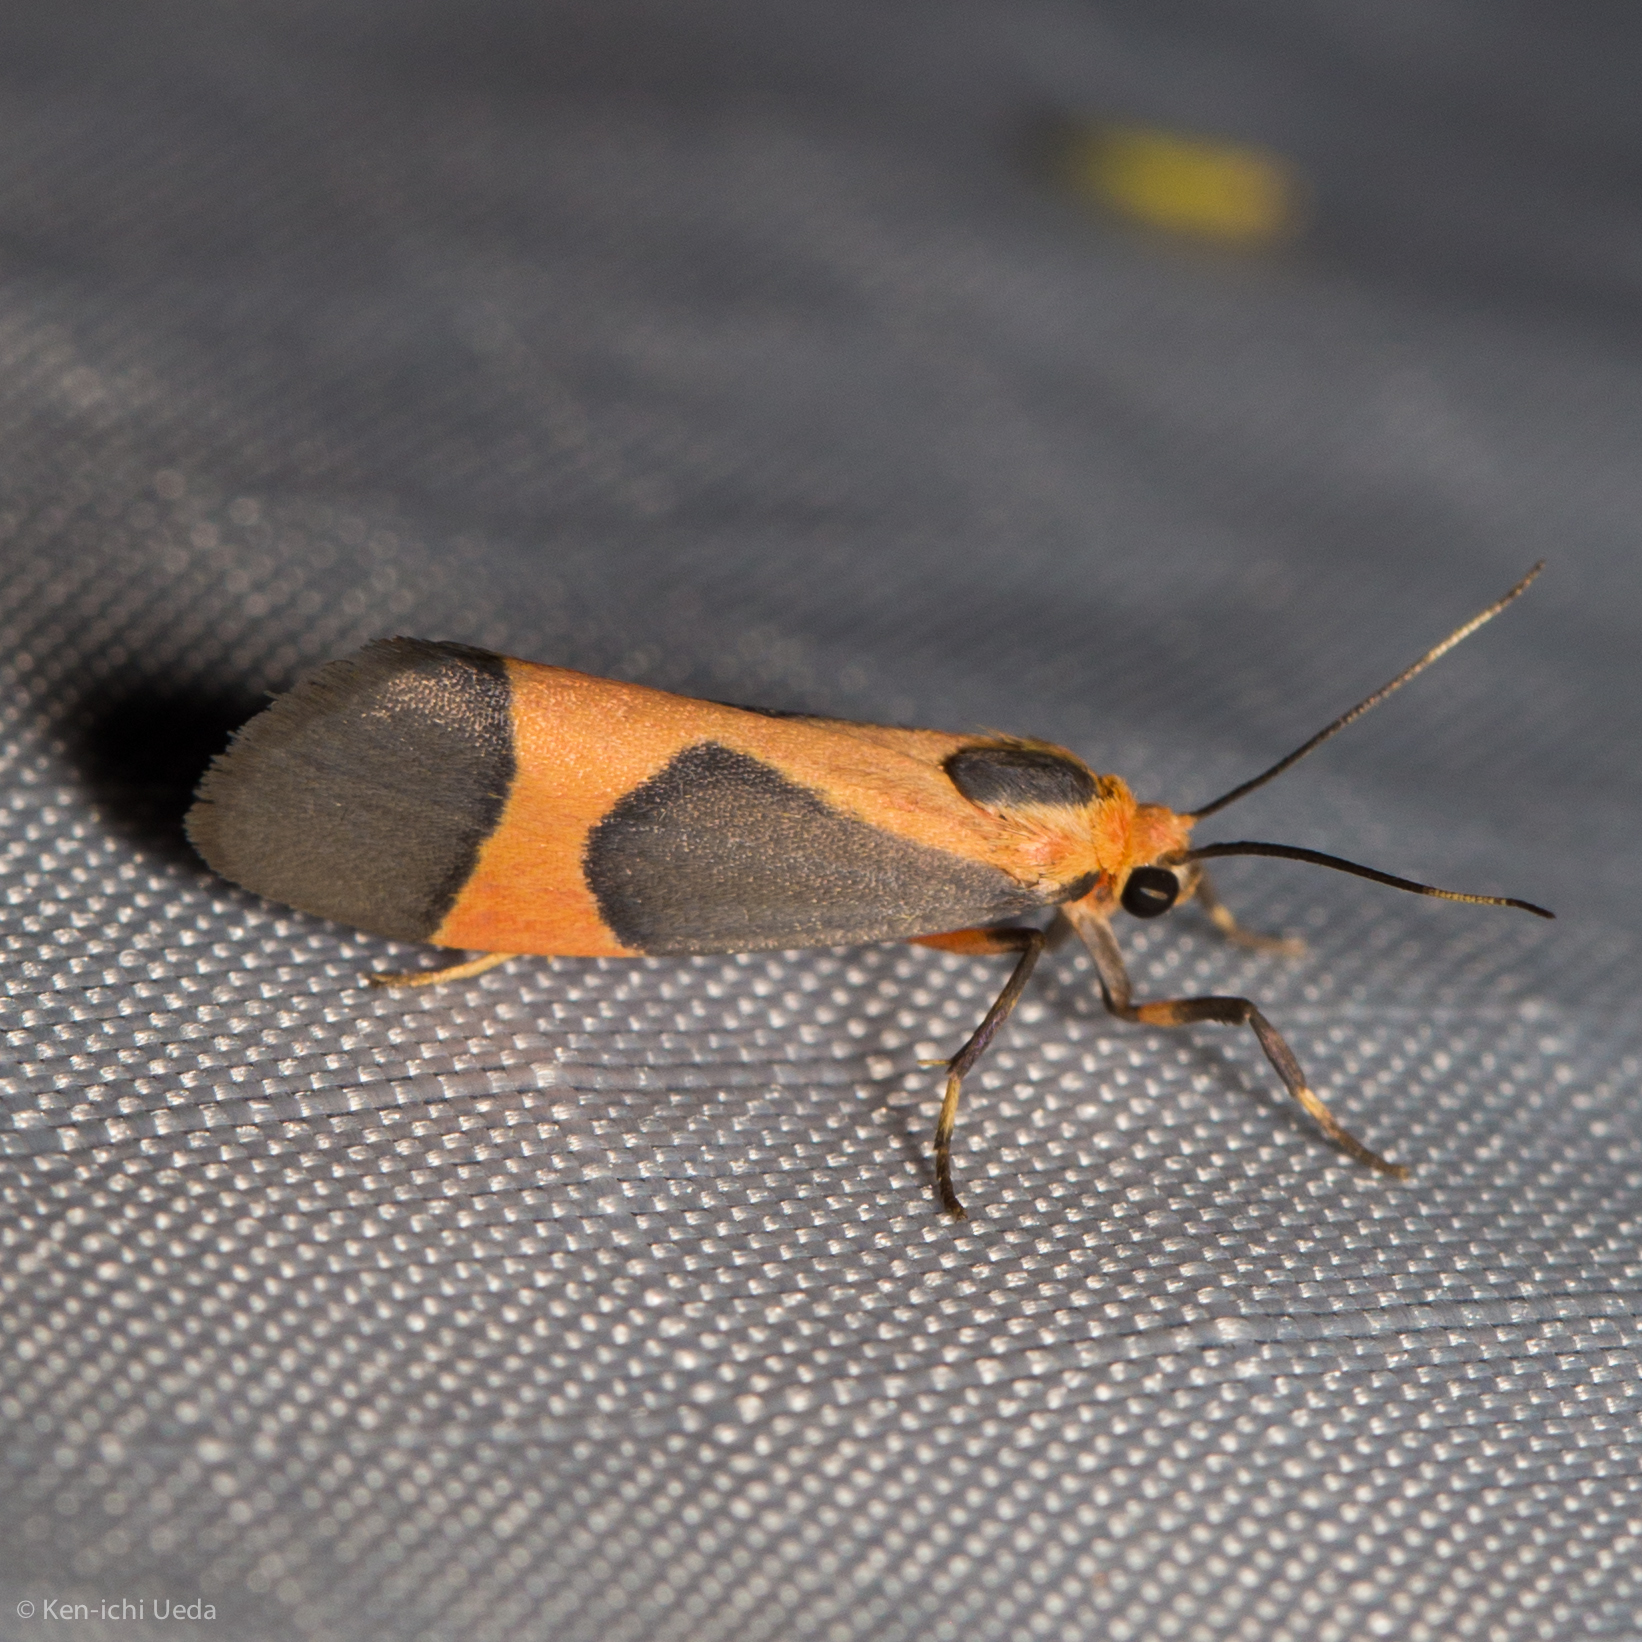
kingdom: Animalia
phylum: Arthropoda
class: Insecta
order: Lepidoptera
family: Erebidae
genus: Cisthene
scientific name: Cisthene martini
